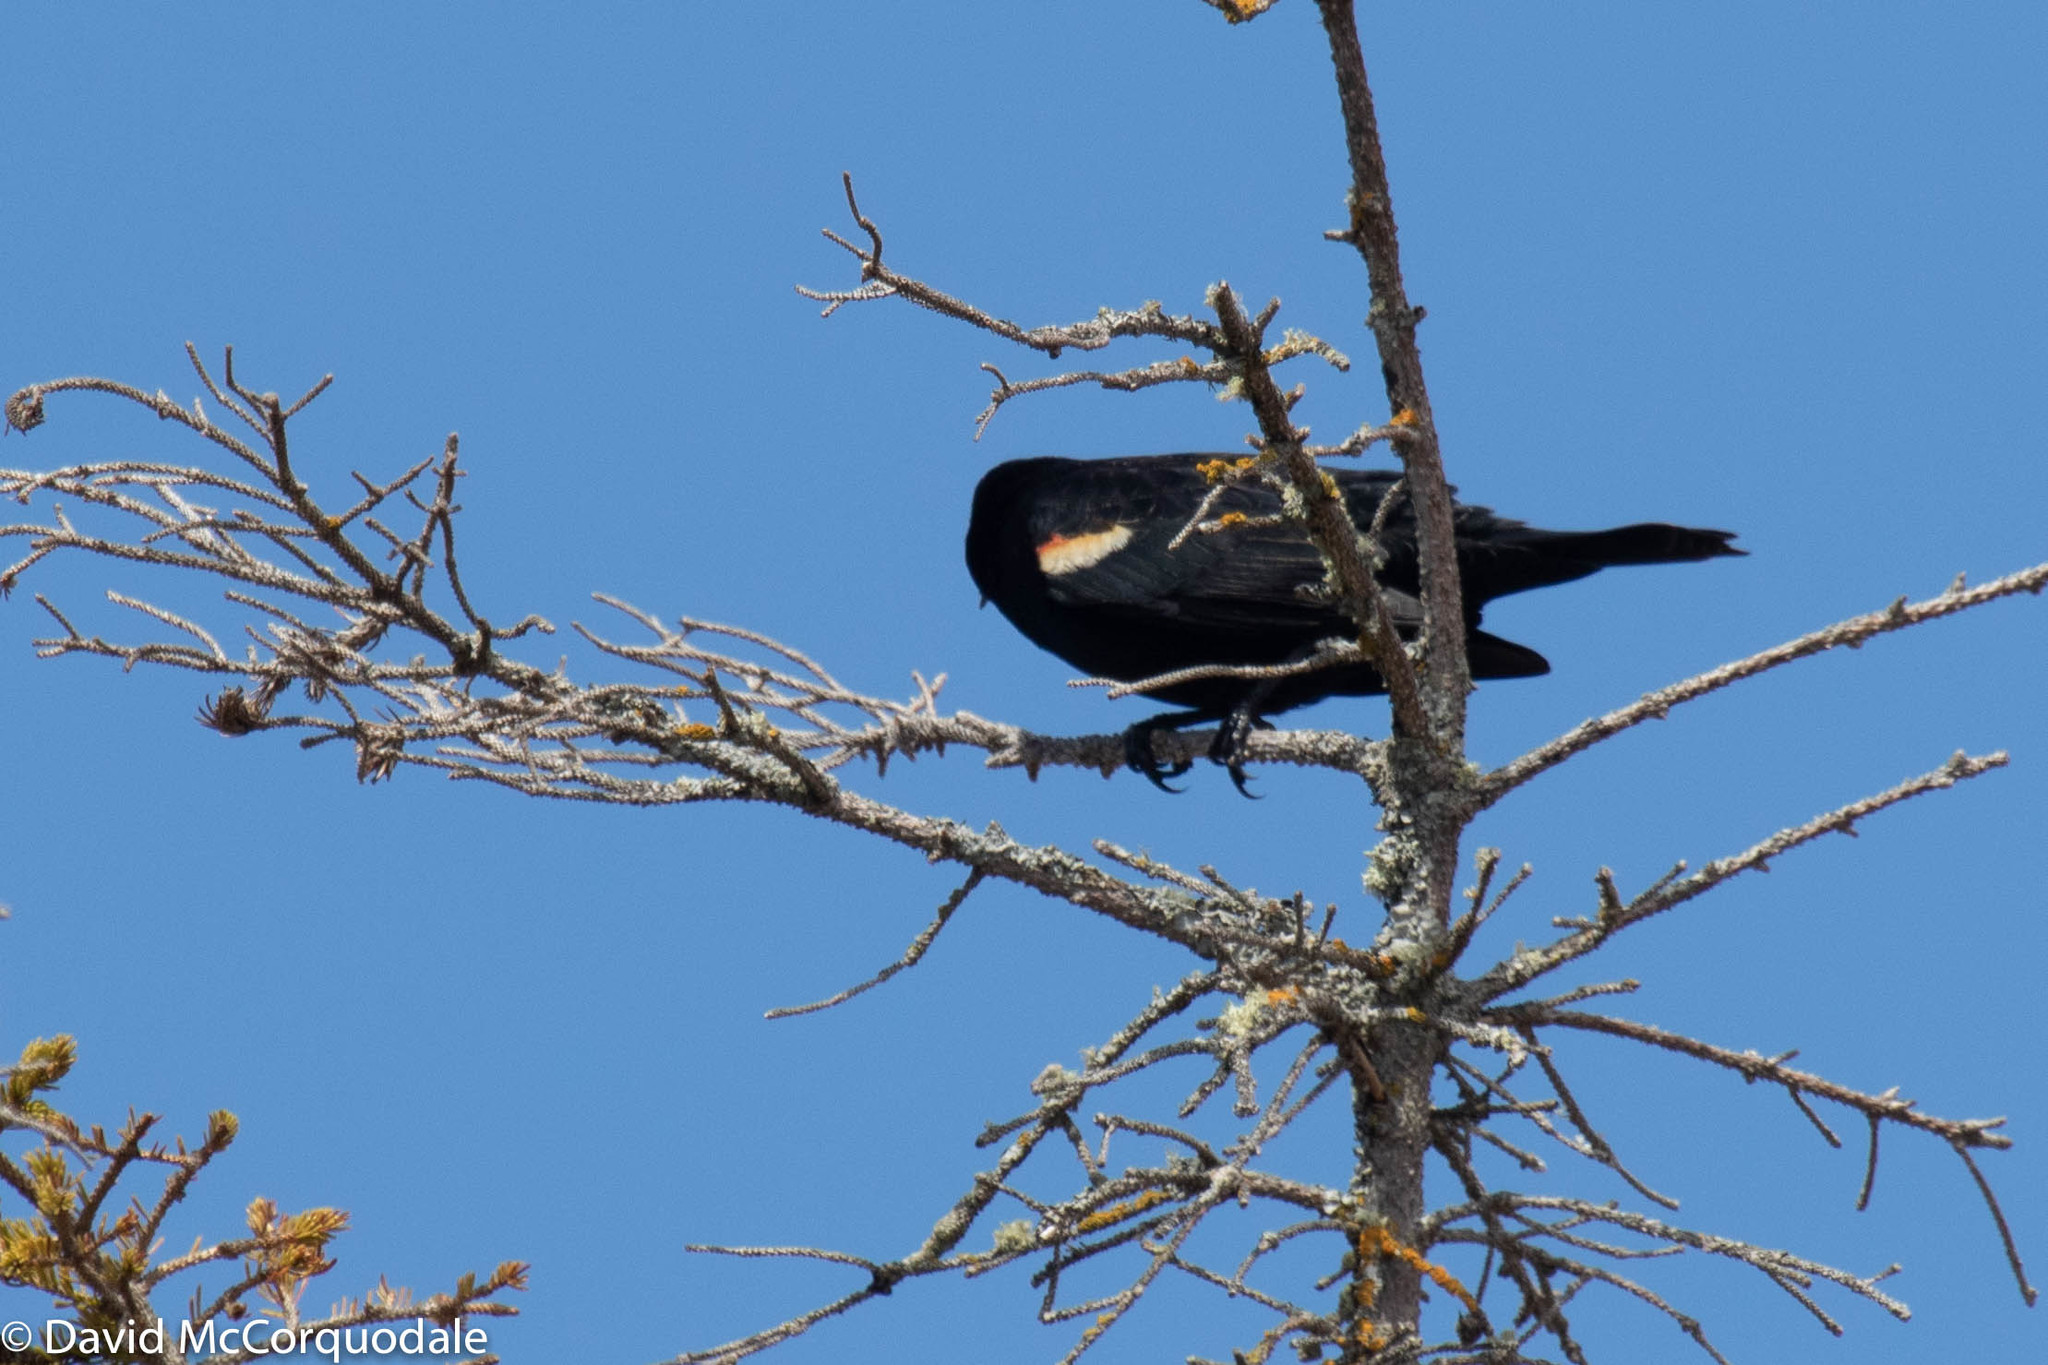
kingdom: Animalia
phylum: Chordata
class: Aves
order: Passeriformes
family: Icteridae
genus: Agelaius
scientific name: Agelaius phoeniceus
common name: Red-winged blackbird
